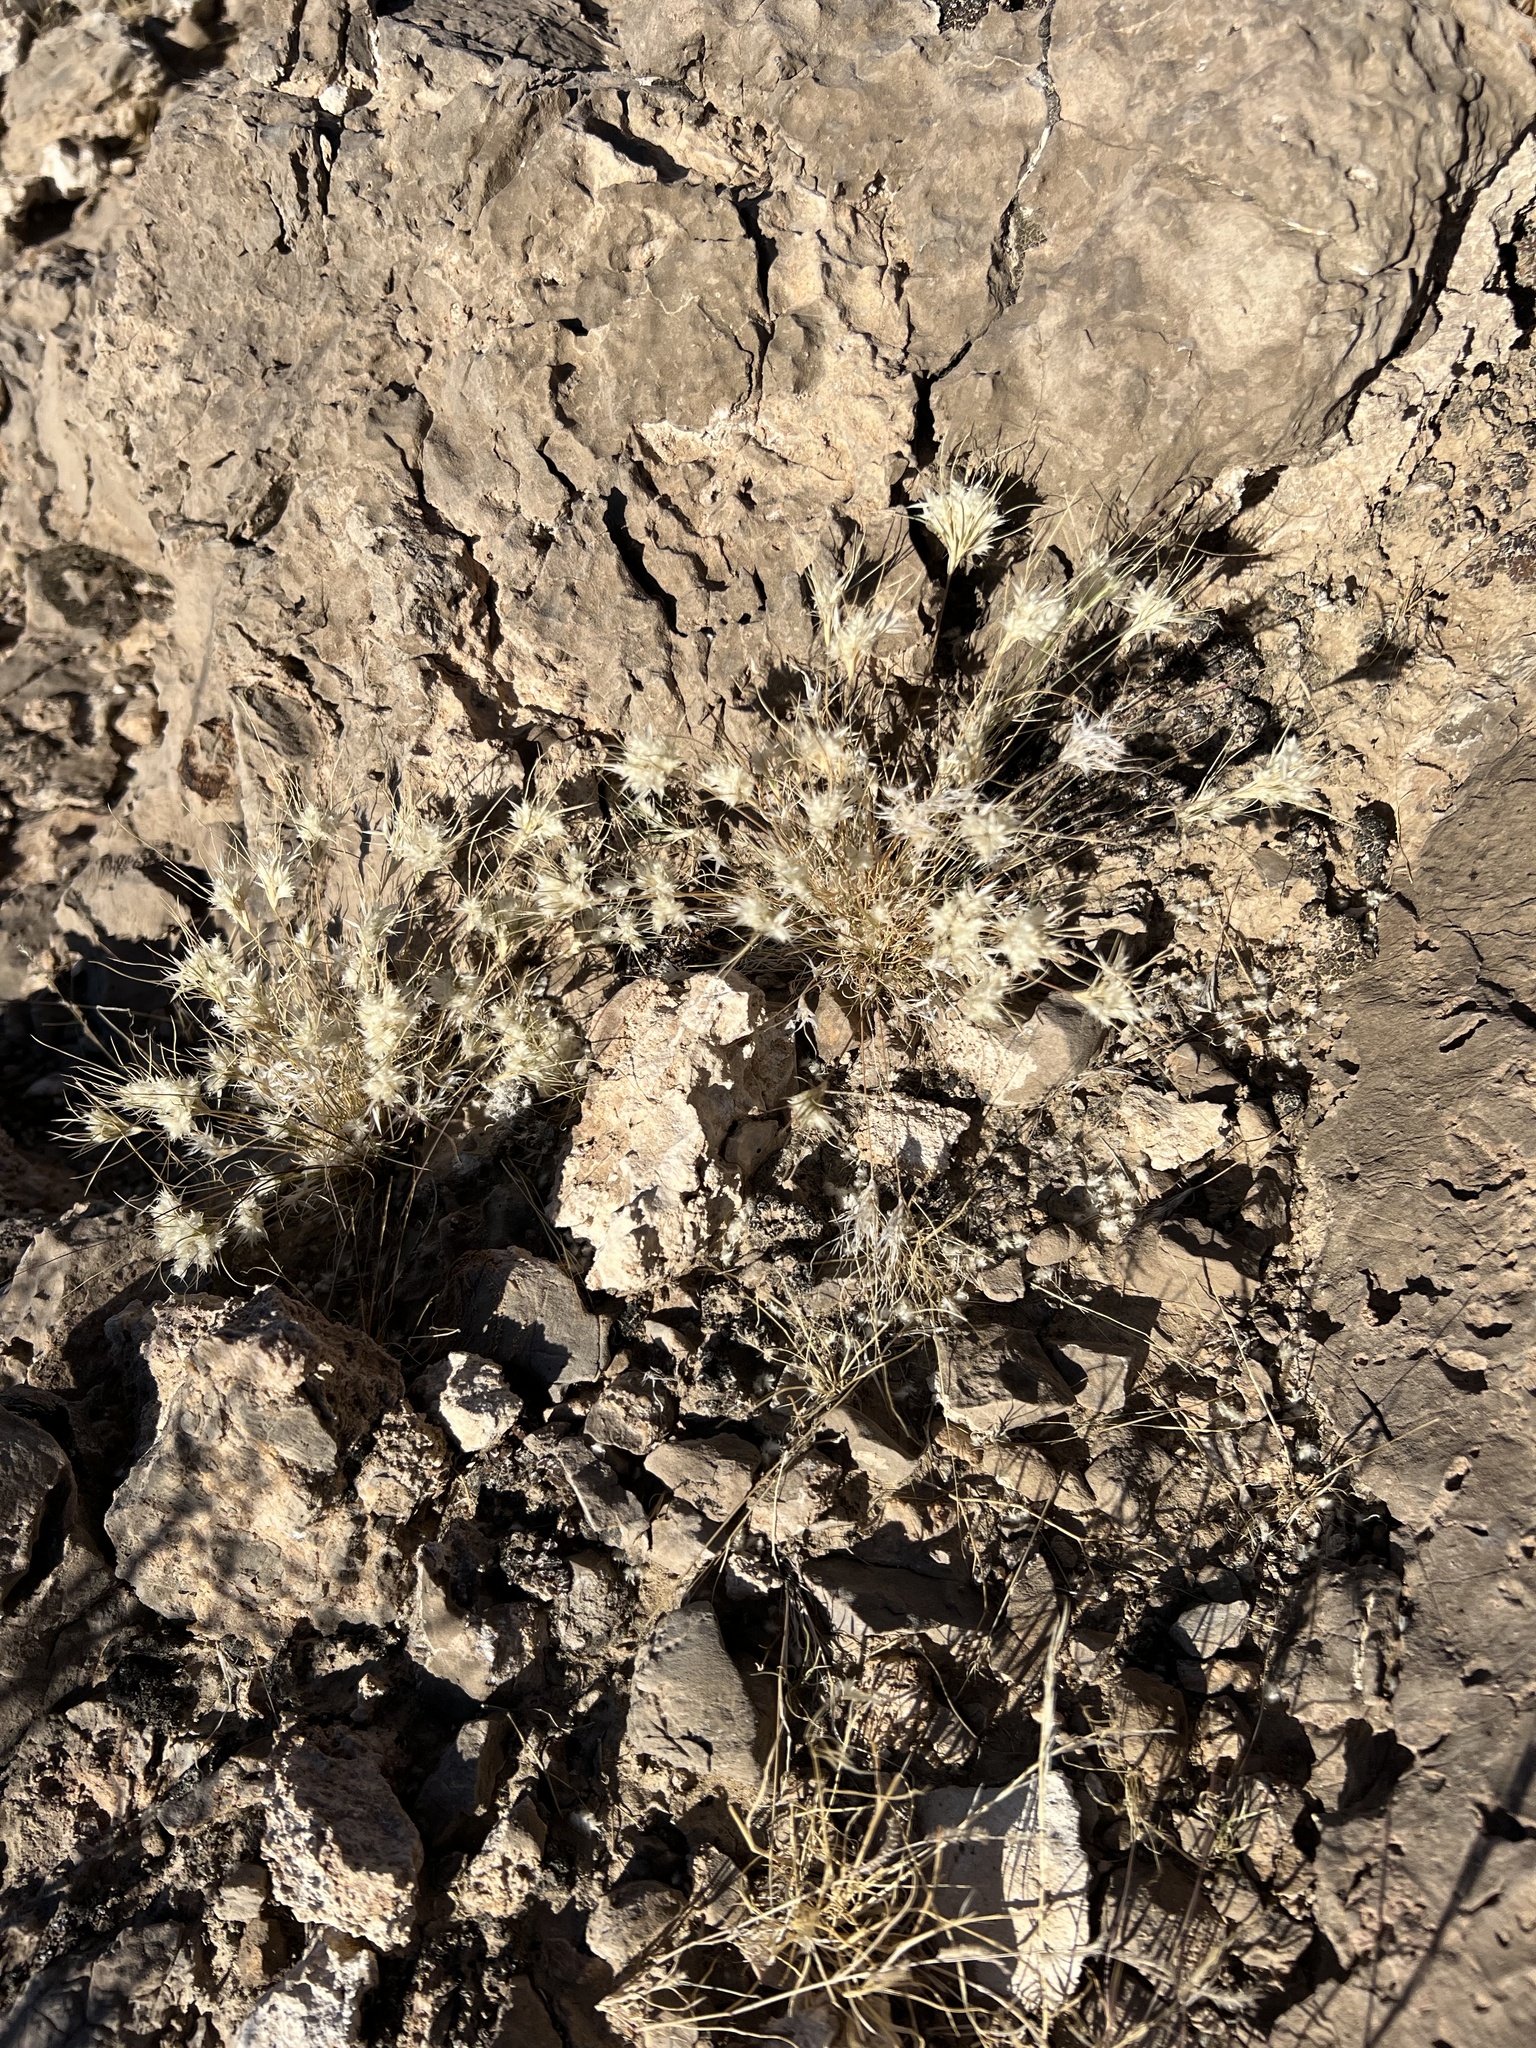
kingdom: Plantae
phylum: Tracheophyta
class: Liliopsida
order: Poales
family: Poaceae
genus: Dasyochloa
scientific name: Dasyochloa pulchella
